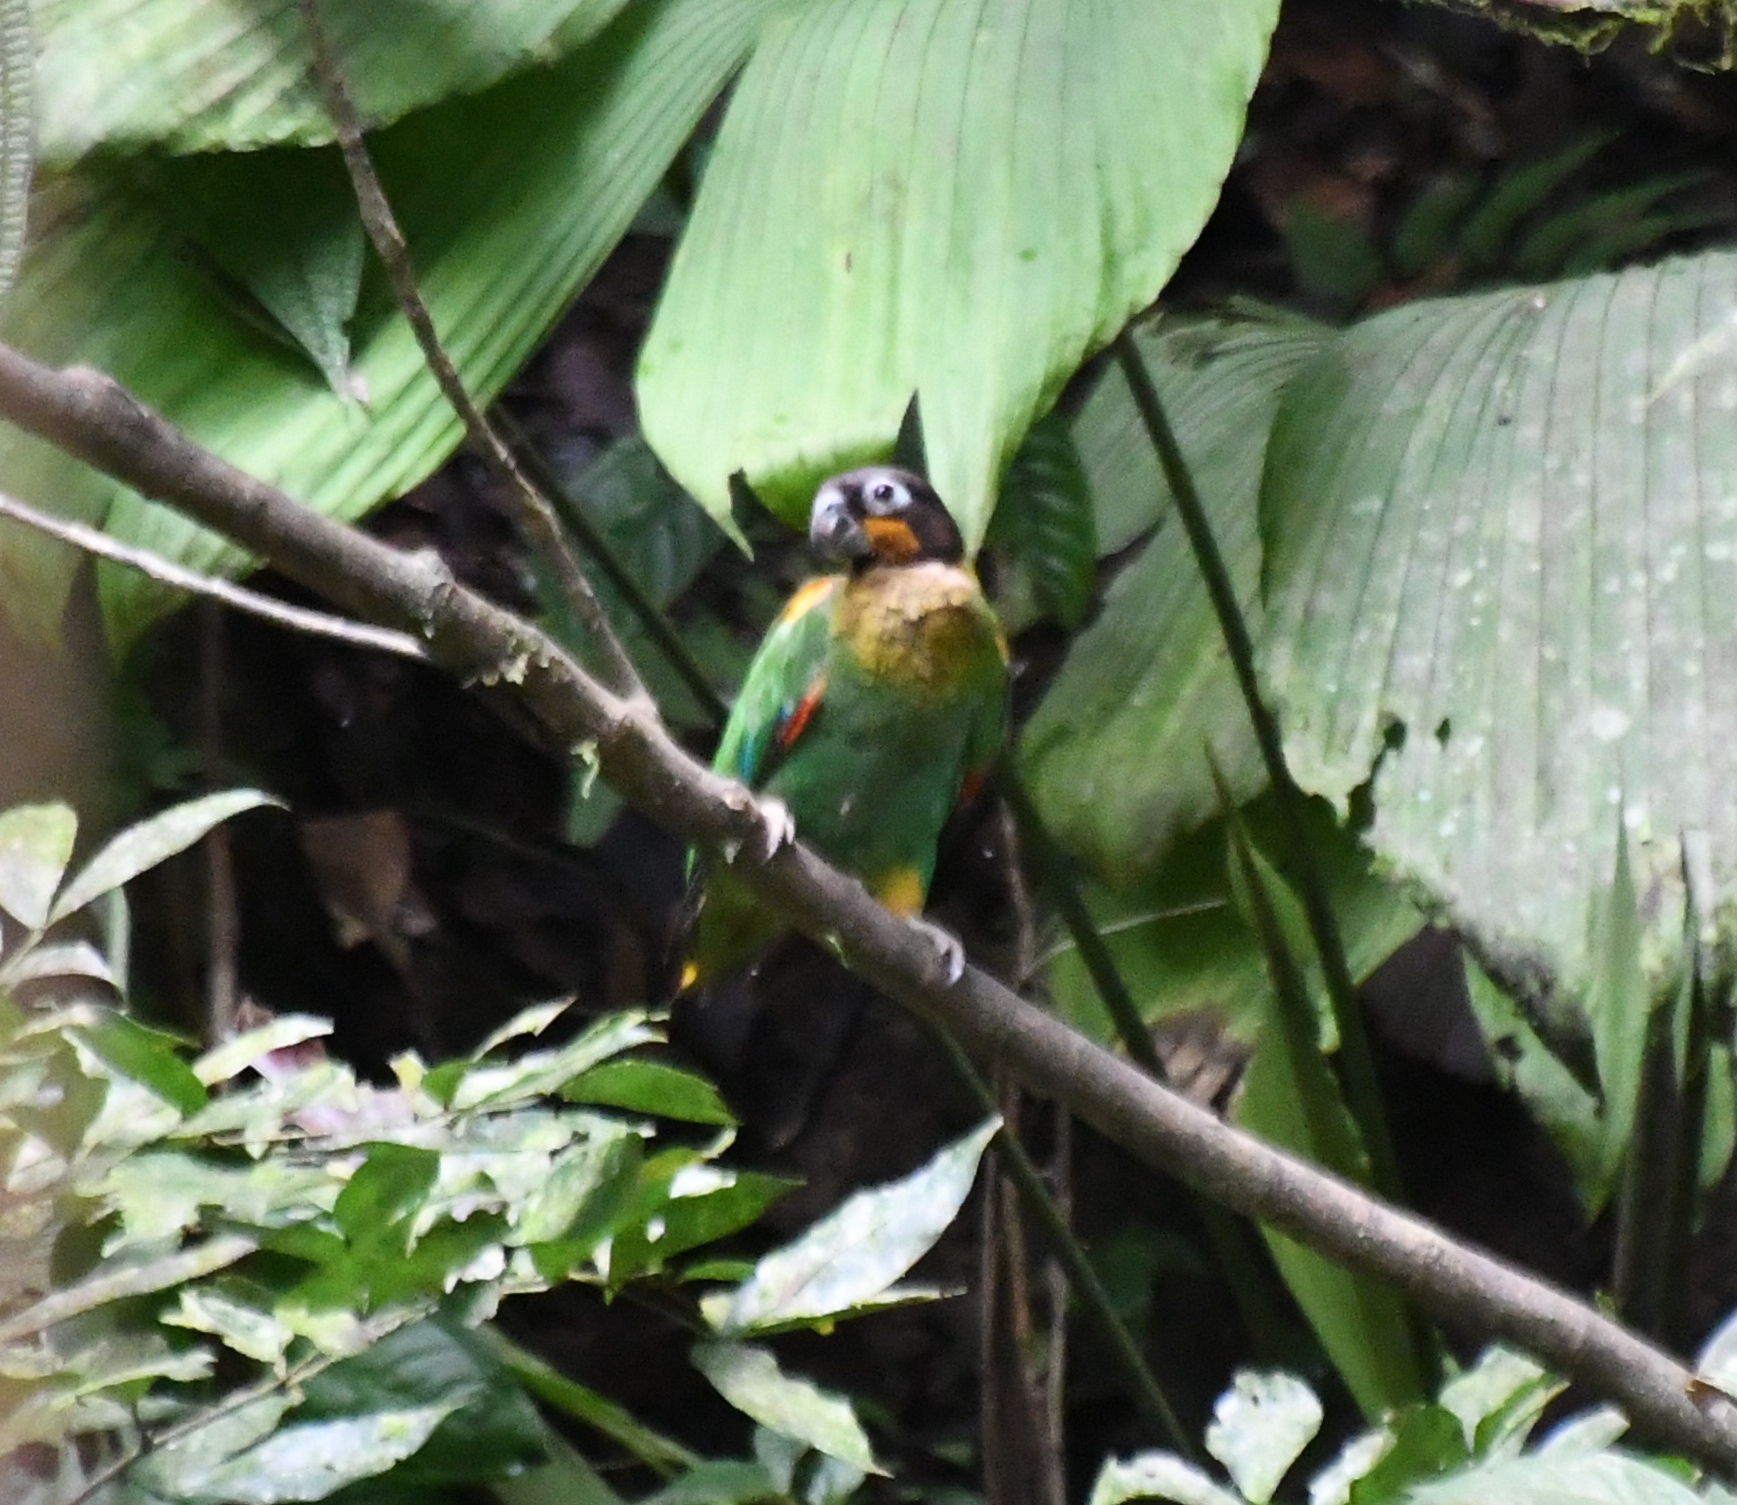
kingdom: Animalia
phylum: Chordata
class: Aves
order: Psittaciformes
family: Psittacidae
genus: Pionopsitta
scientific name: Pionopsitta barrabandi
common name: Orange-cheeked parrot
